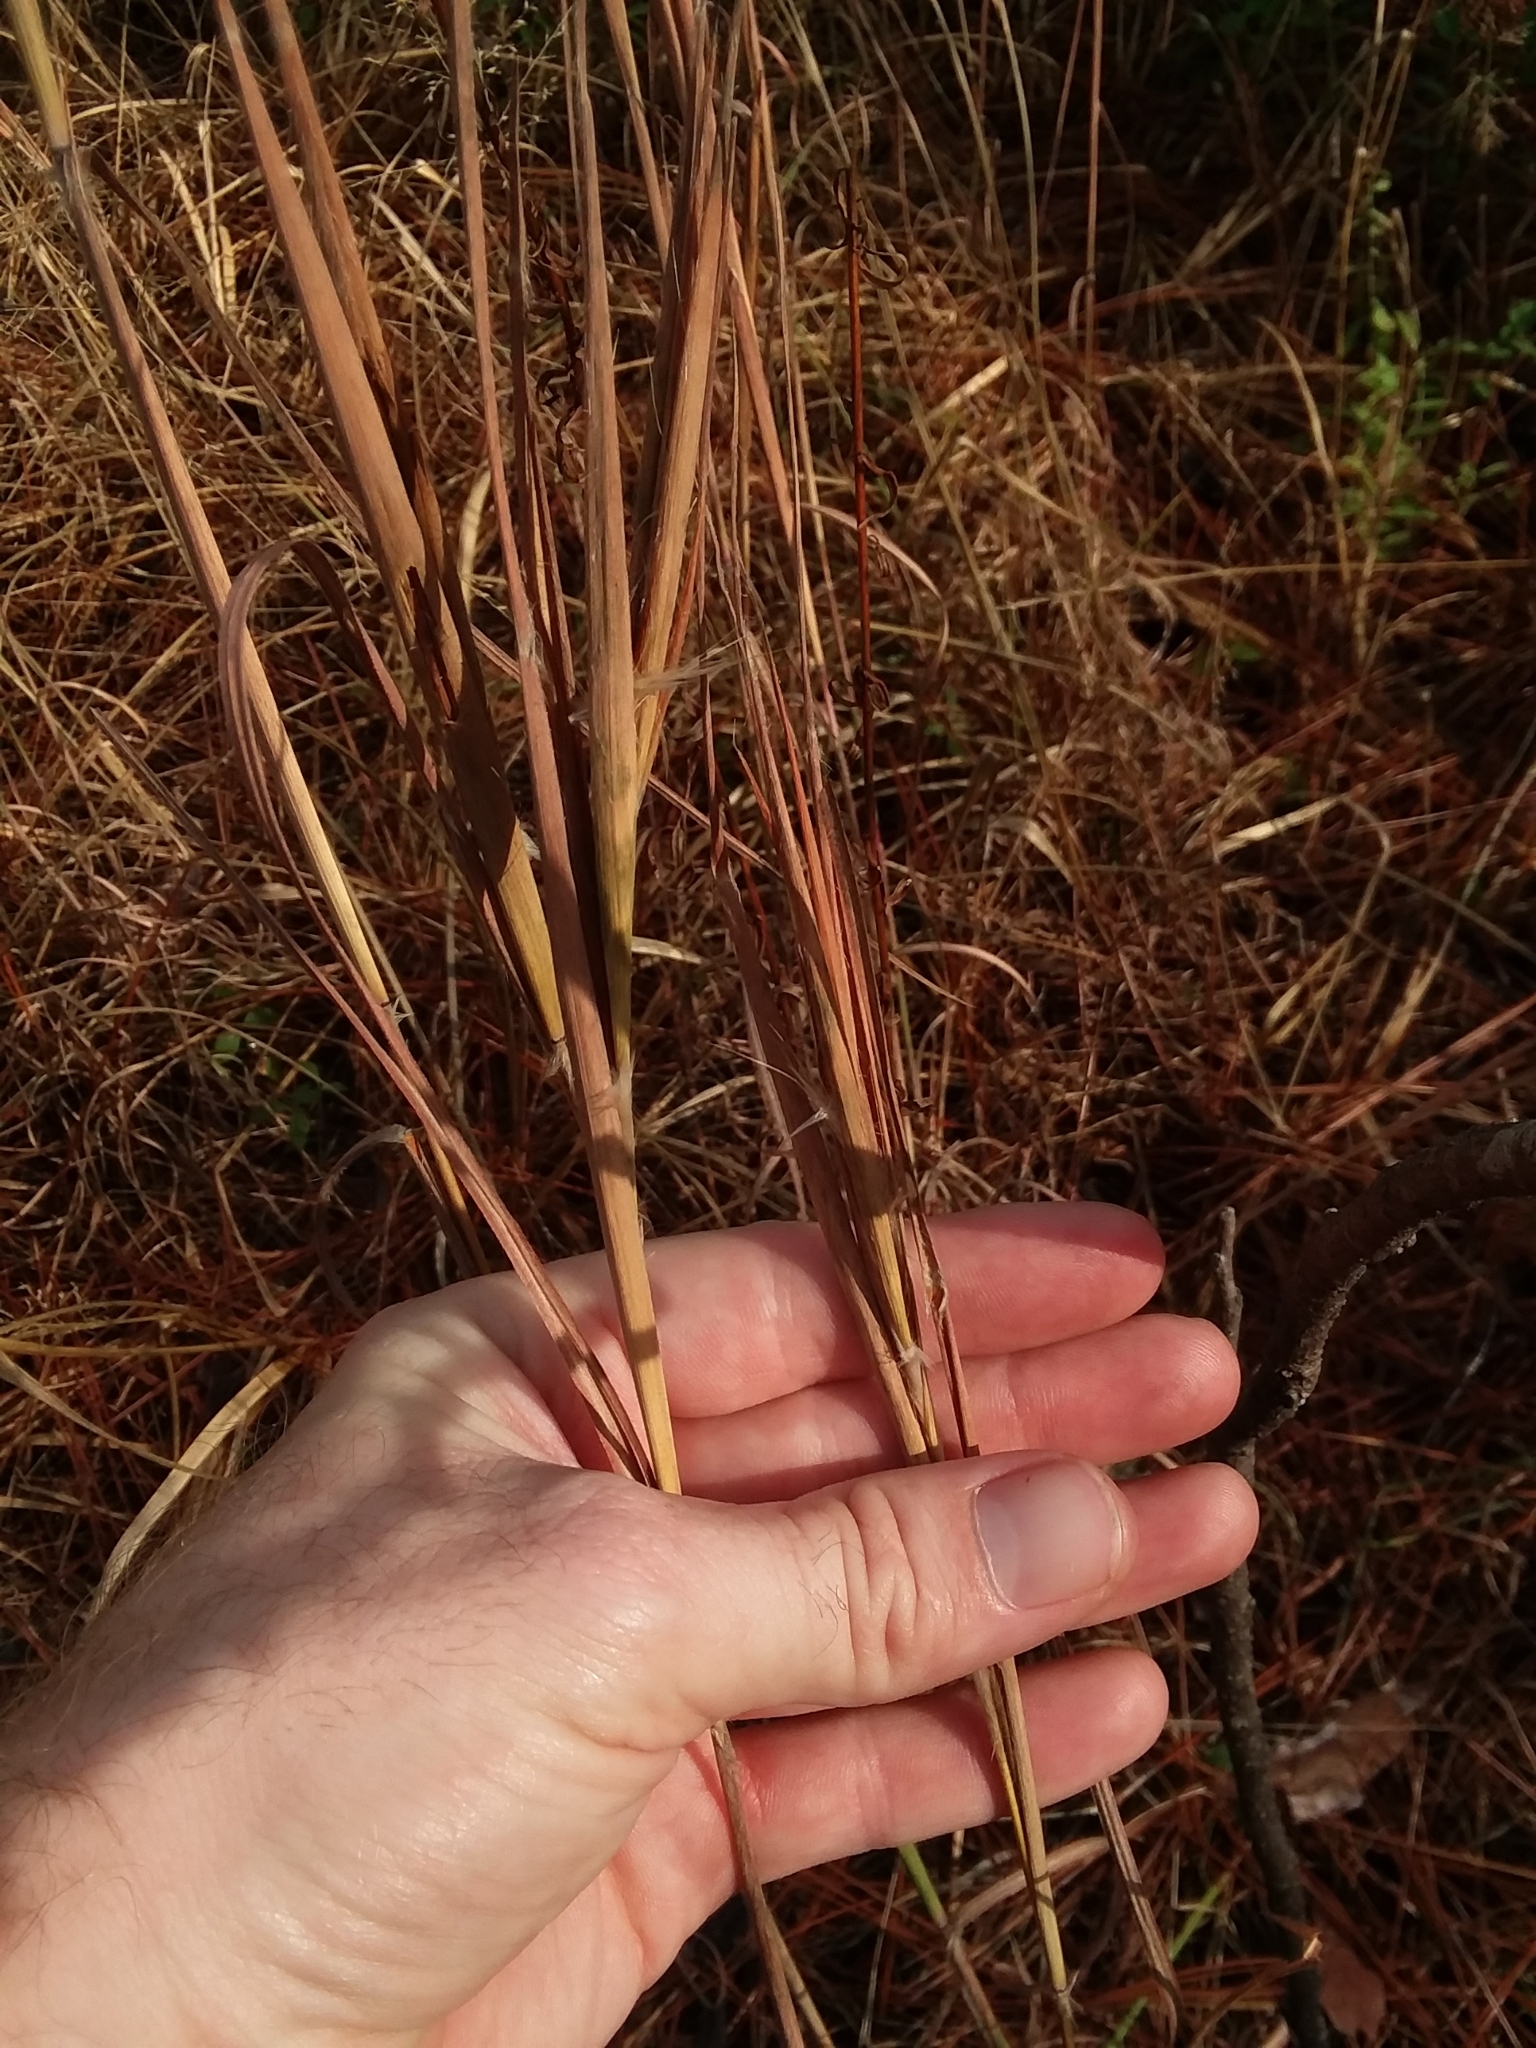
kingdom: Plantae
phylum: Tracheophyta
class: Liliopsida
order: Poales
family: Poaceae
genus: Andropogon
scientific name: Andropogon gyrans
